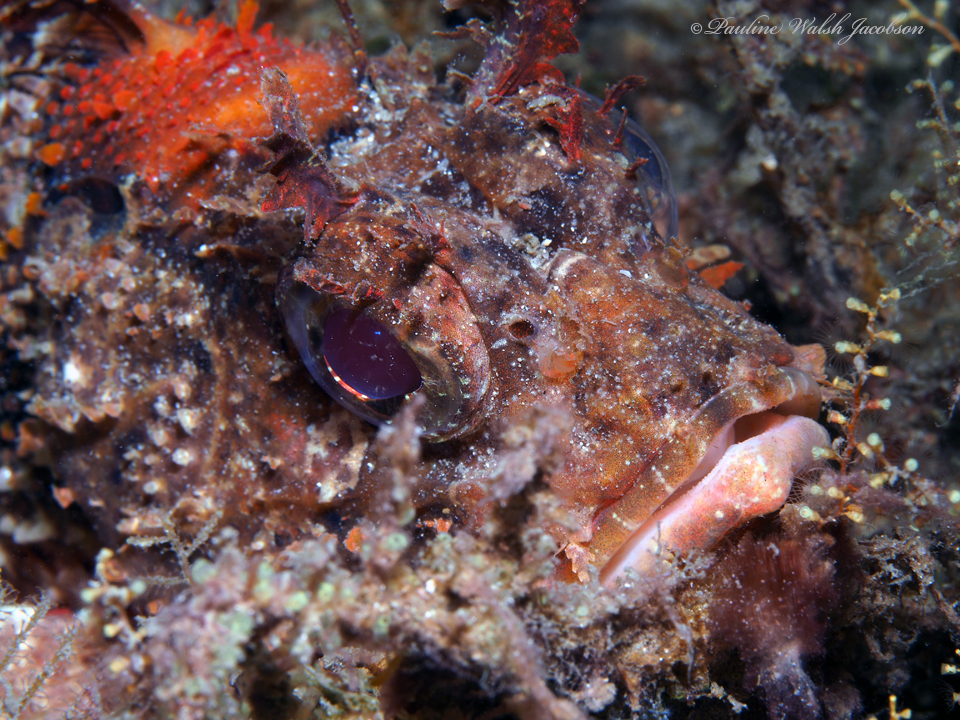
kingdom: Animalia
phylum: Chordata
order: Scorpaeniformes
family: Scorpaenidae
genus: Scorpaena
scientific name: Scorpaena brasiliensis
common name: Barbfish
